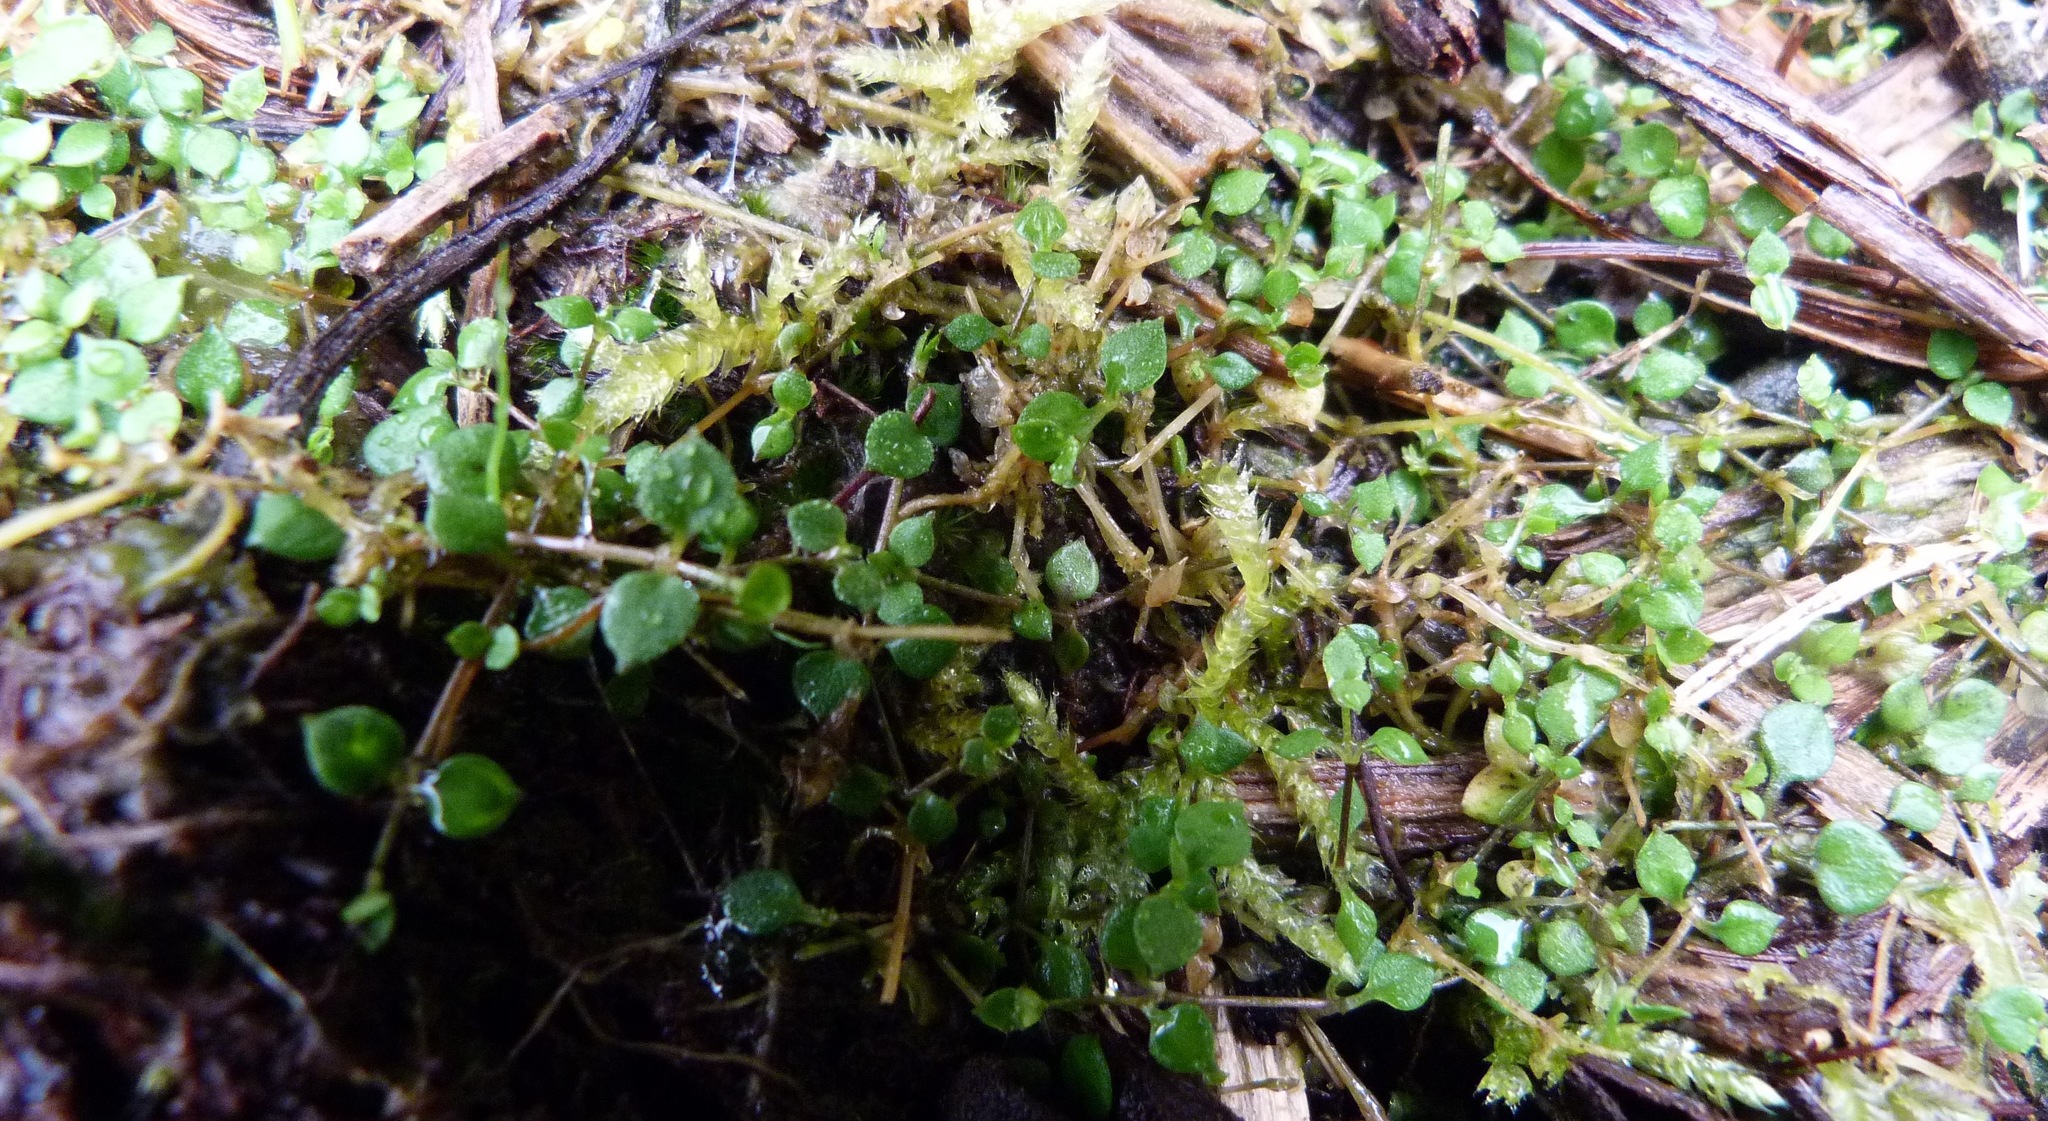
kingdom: Plantae
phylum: Tracheophyta
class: Magnoliopsida
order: Caryophyllales
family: Caryophyllaceae
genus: Stellaria
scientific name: Stellaria parviflora
